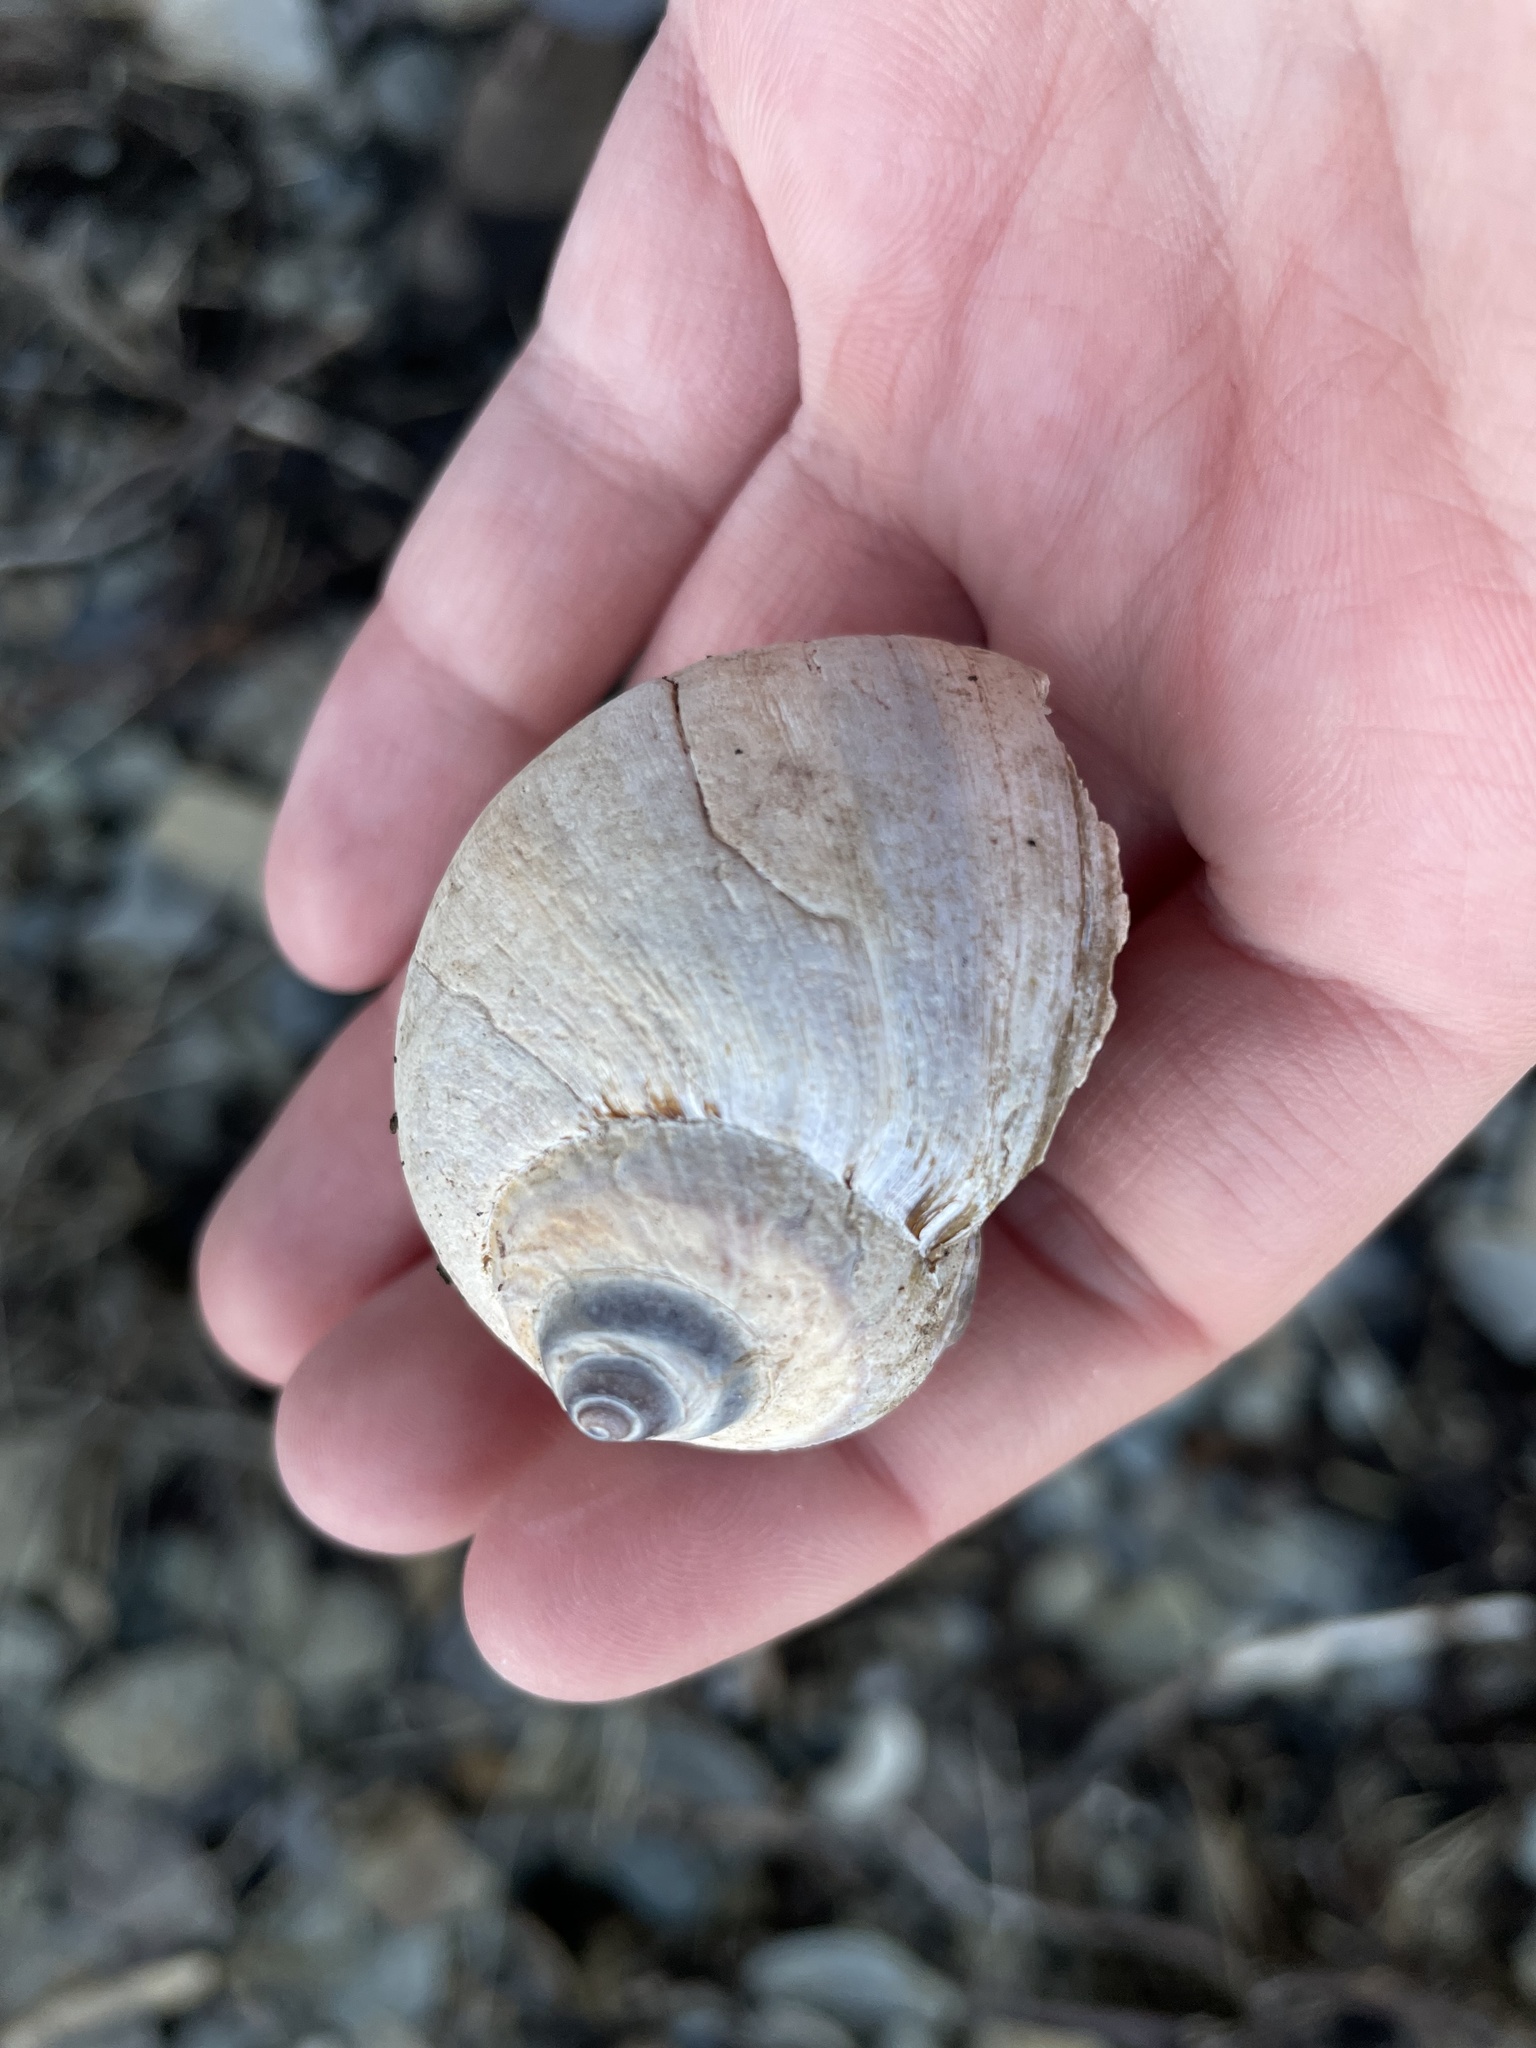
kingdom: Animalia
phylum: Mollusca
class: Gastropoda
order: Littorinimorpha
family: Naticidae
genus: Euspira
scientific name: Euspira heros
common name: Common northern moonsnail
